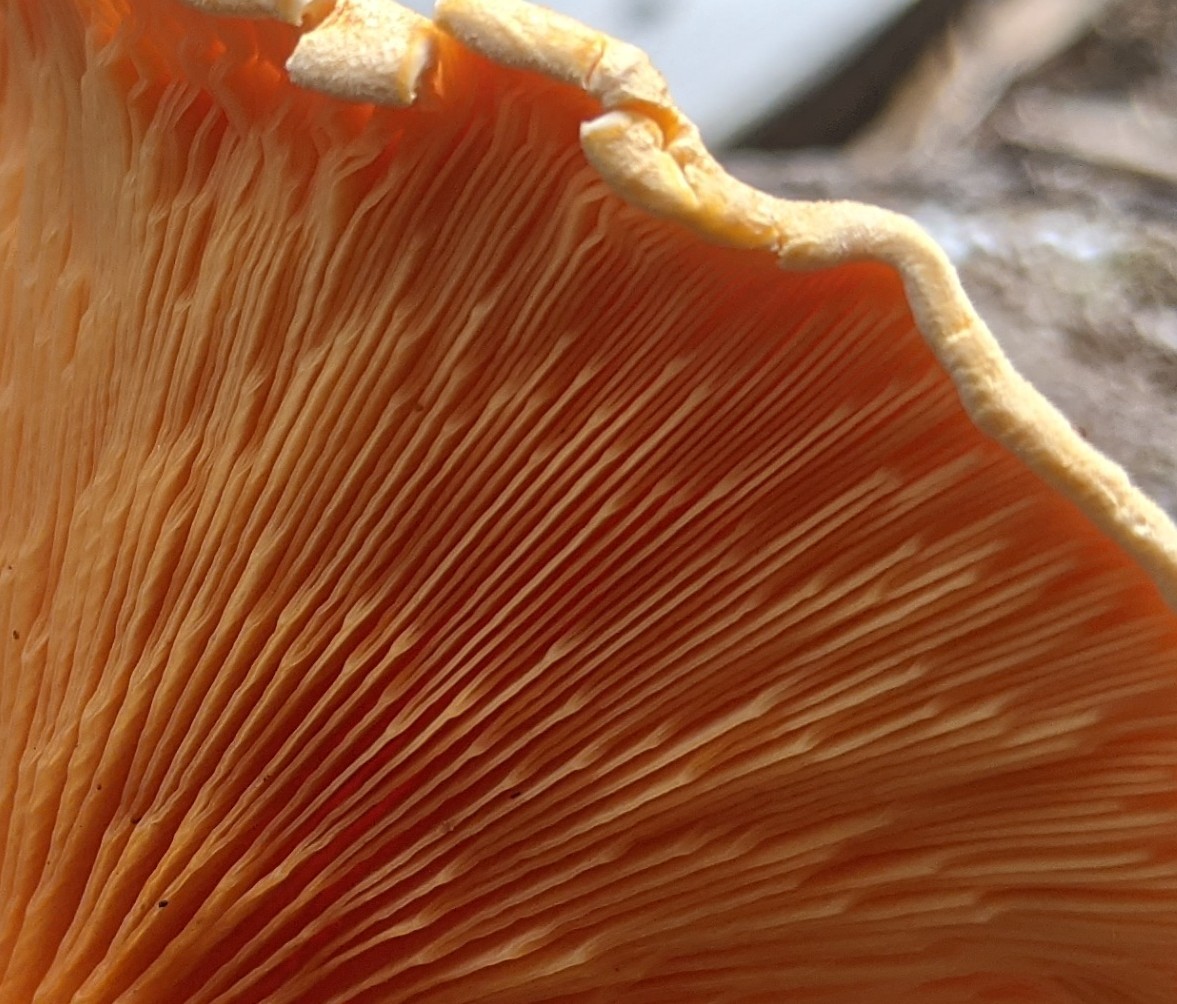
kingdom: Fungi
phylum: Basidiomycota
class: Agaricomycetes
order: Boletales
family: Hygrophoropsidaceae
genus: Hygrophoropsis
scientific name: Hygrophoropsis aurantiaca
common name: False chanterelle
